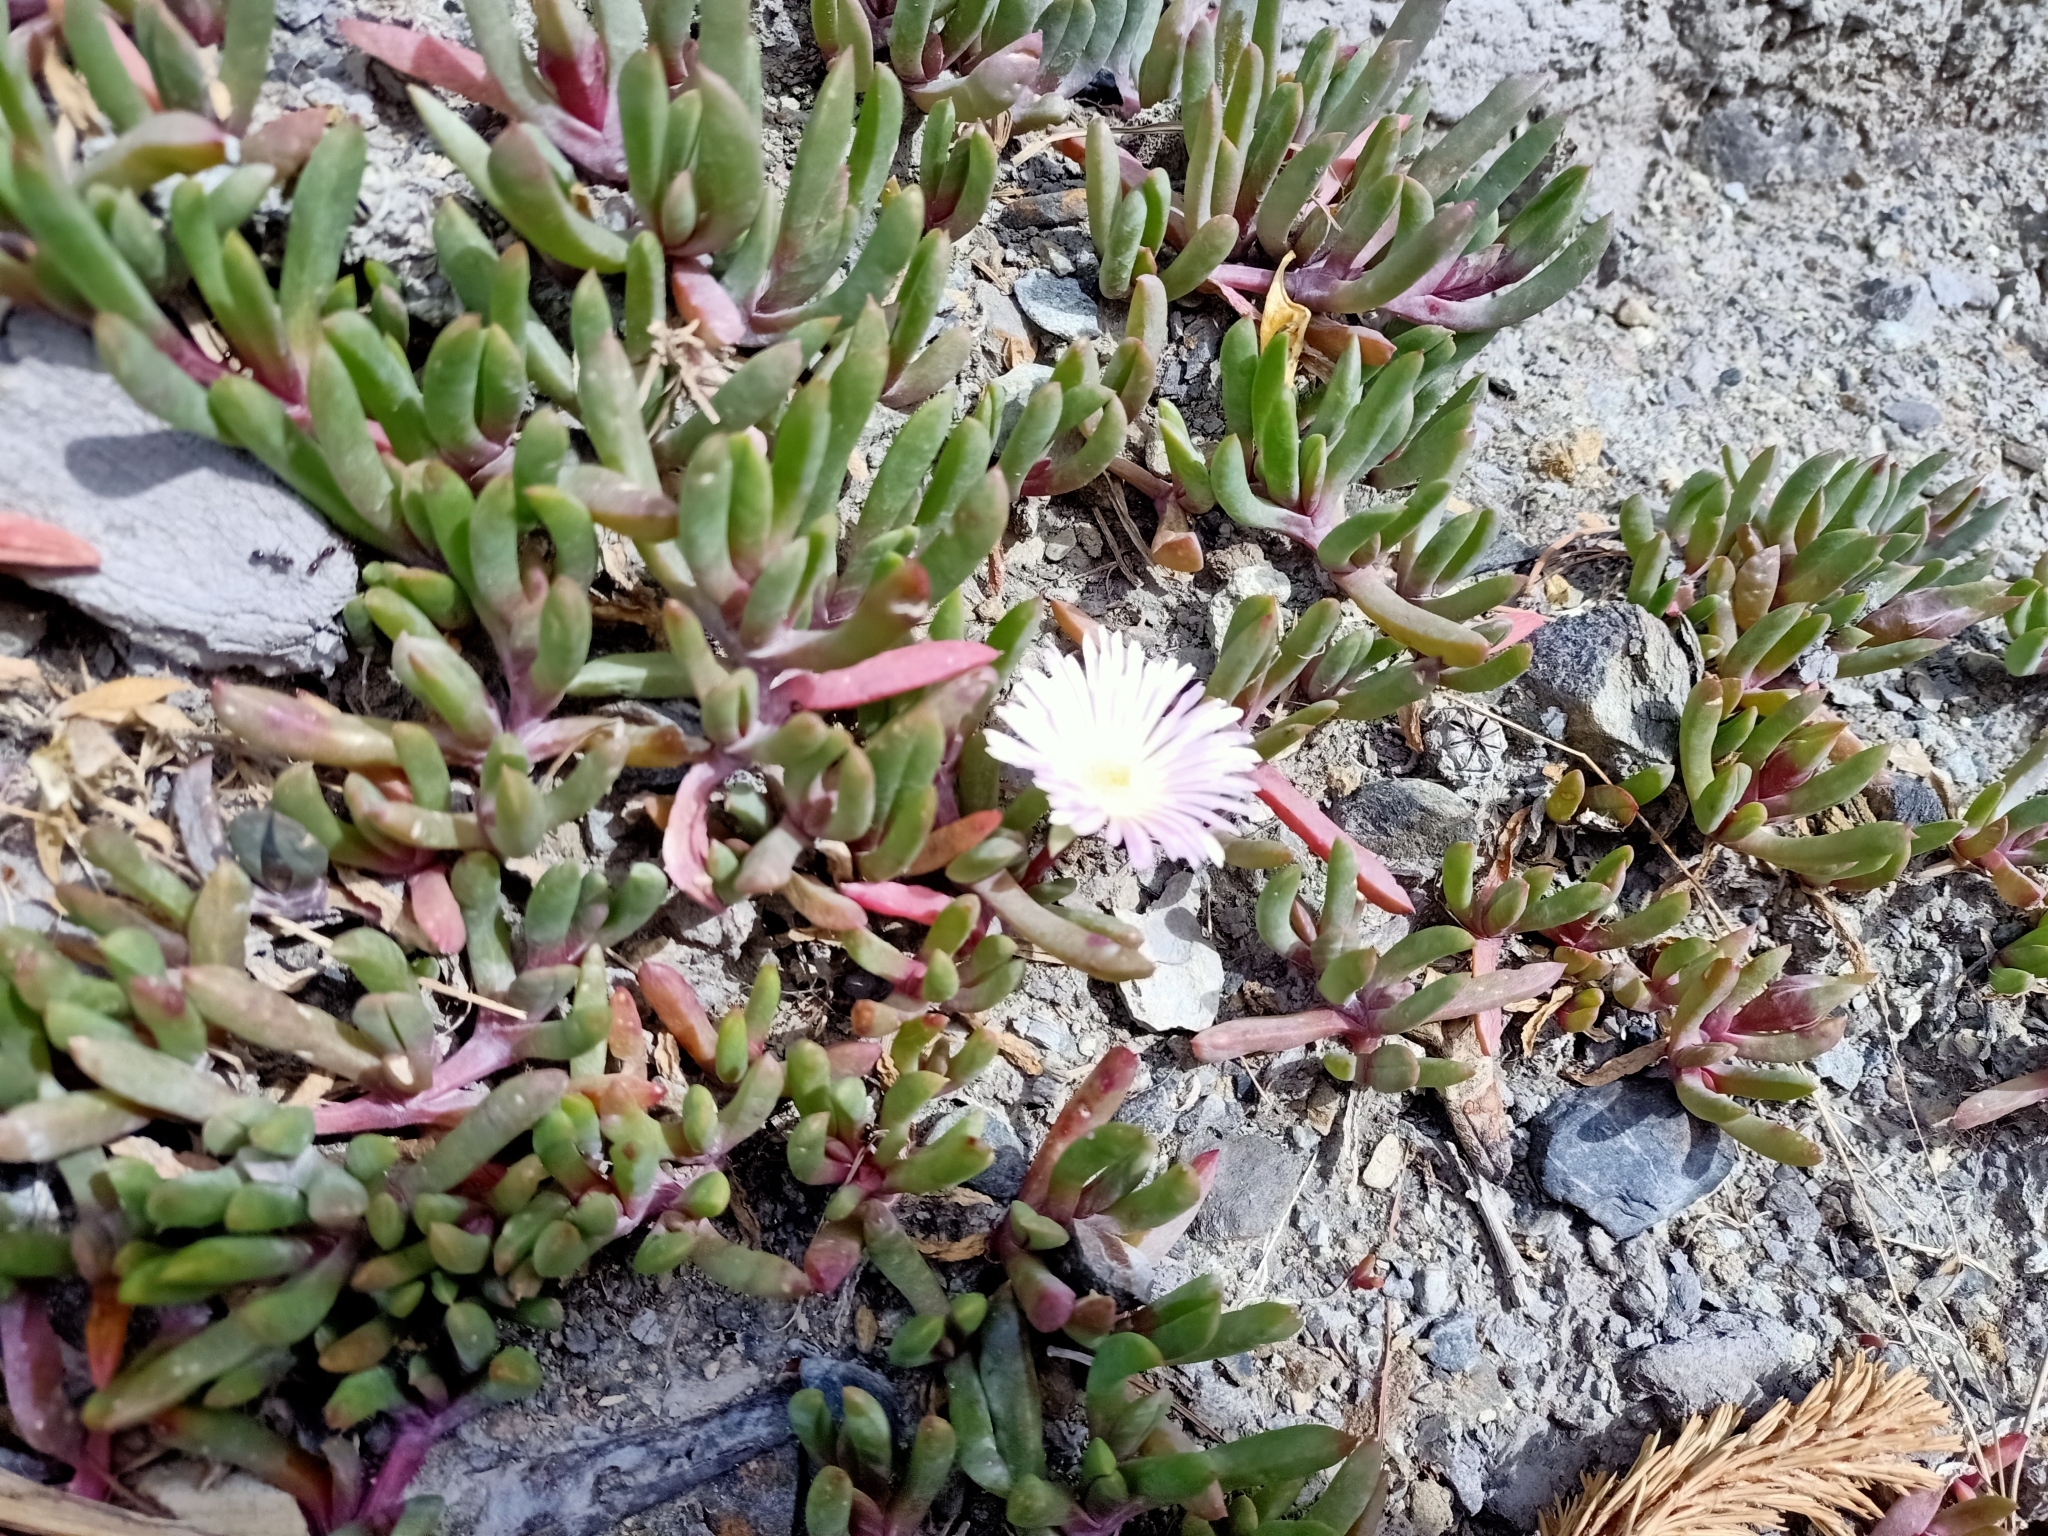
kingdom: Plantae
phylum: Tracheophyta
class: Magnoliopsida
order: Caryophyllales
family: Aizoaceae
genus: Disphyma
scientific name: Disphyma australe
